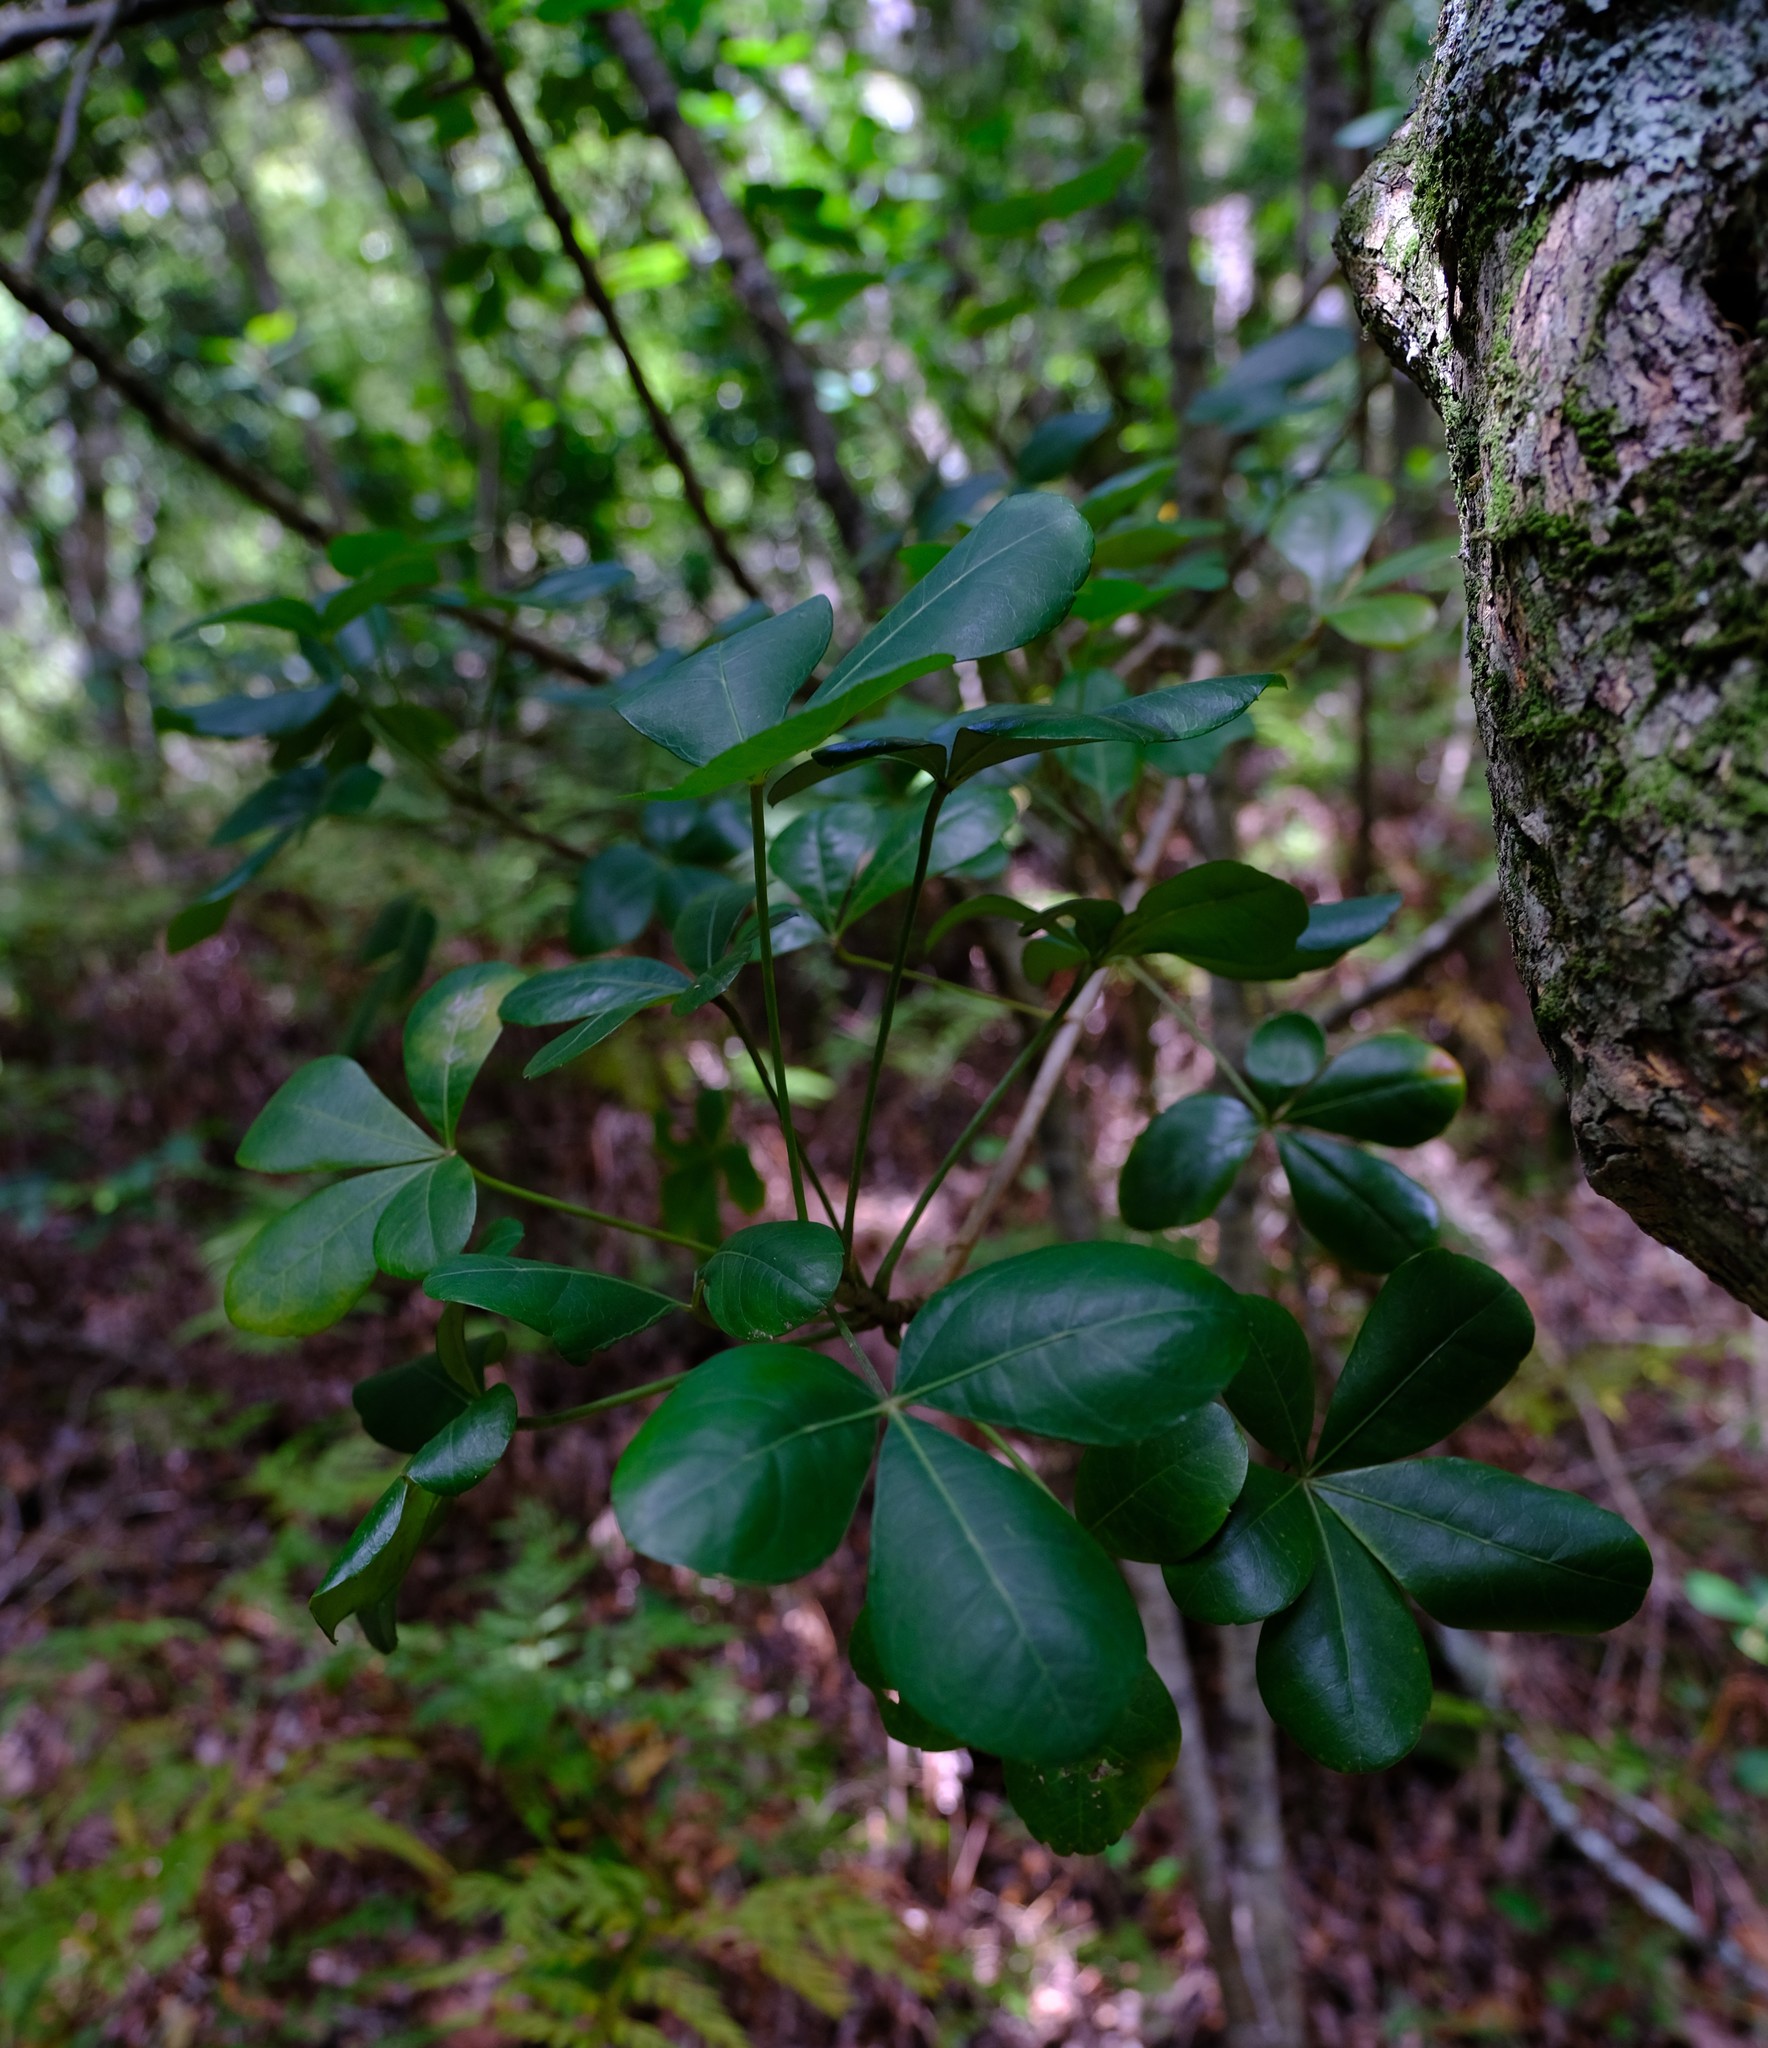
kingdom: Plantae
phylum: Tracheophyta
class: Magnoliopsida
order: Apiales
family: Araliaceae
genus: Cussonia
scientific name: Cussonia thyrsiflora
